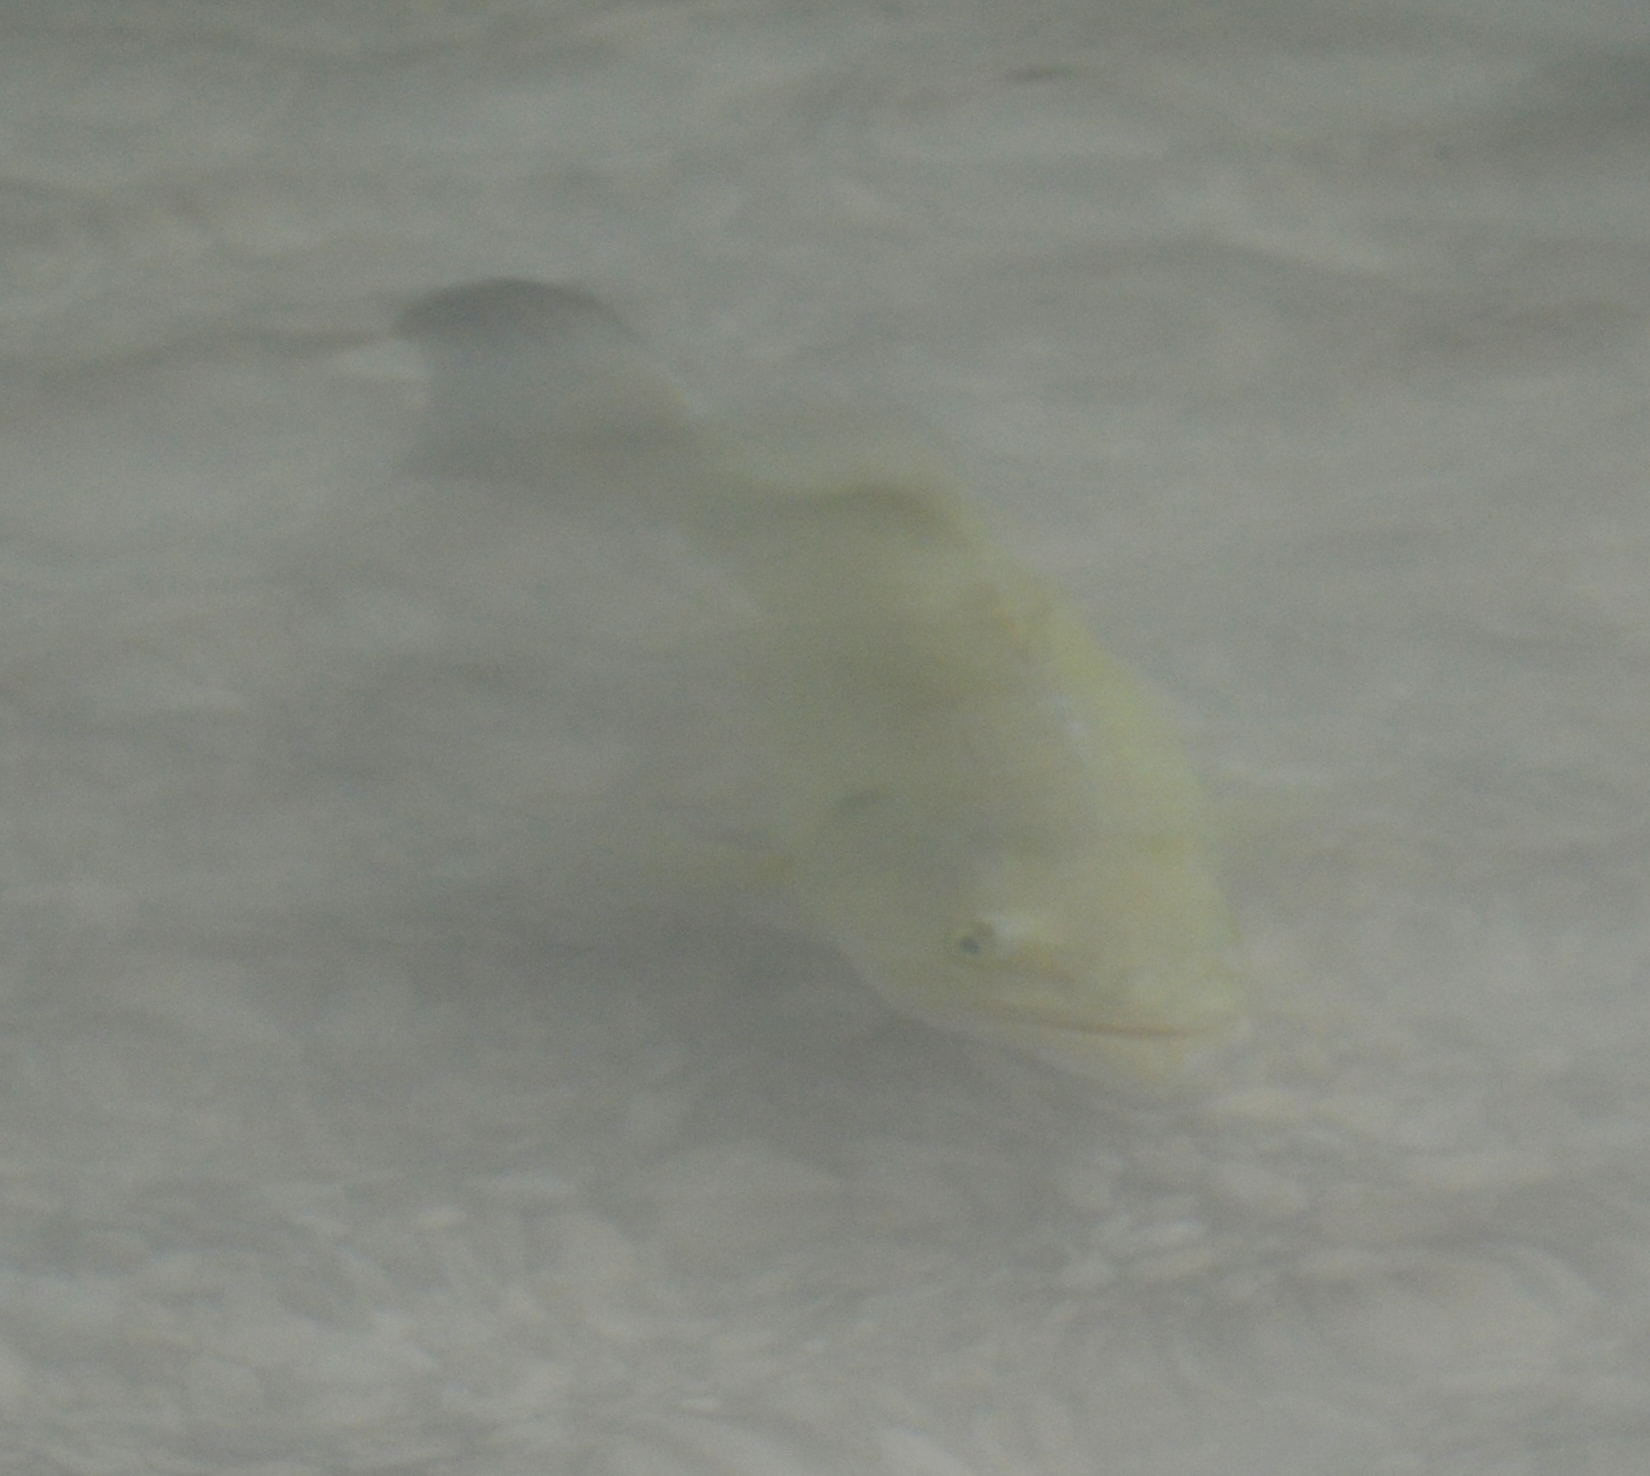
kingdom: Animalia
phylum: Chordata
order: Perciformes
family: Centrarchidae
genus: Micropterus
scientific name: Micropterus
